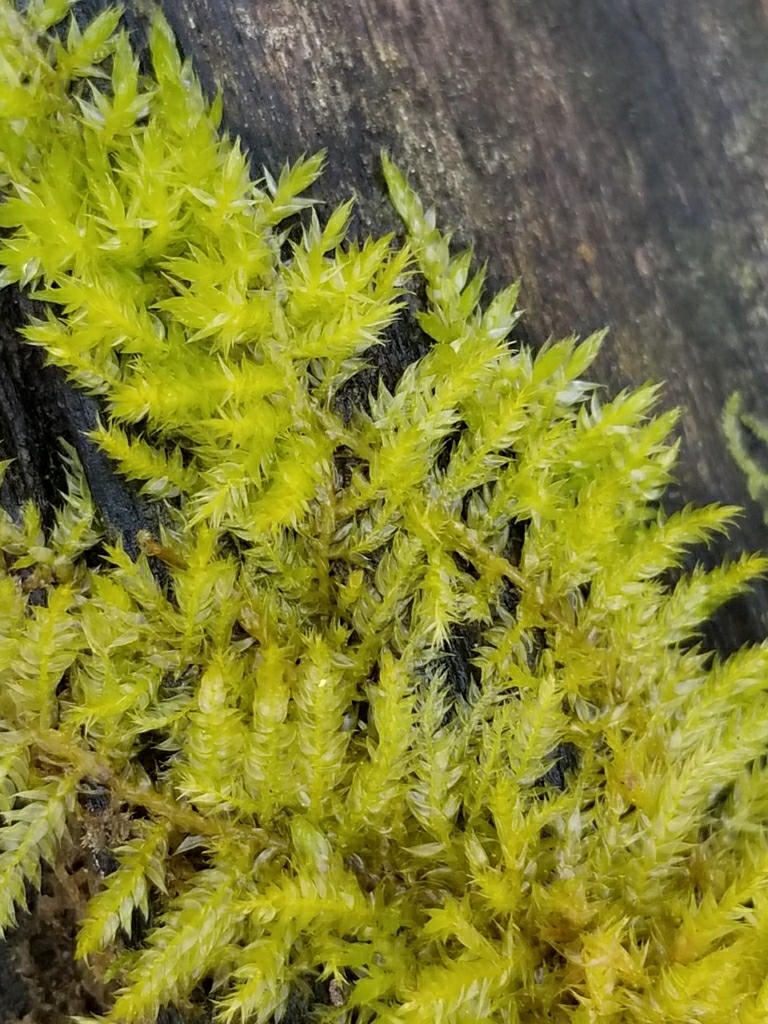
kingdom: Plantae
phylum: Bryophyta
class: Bryopsida
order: Hypnales
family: Brachytheciaceae
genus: Brachythecium
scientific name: Brachythecium salebrosum
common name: Smooth-stalk feather-moss
